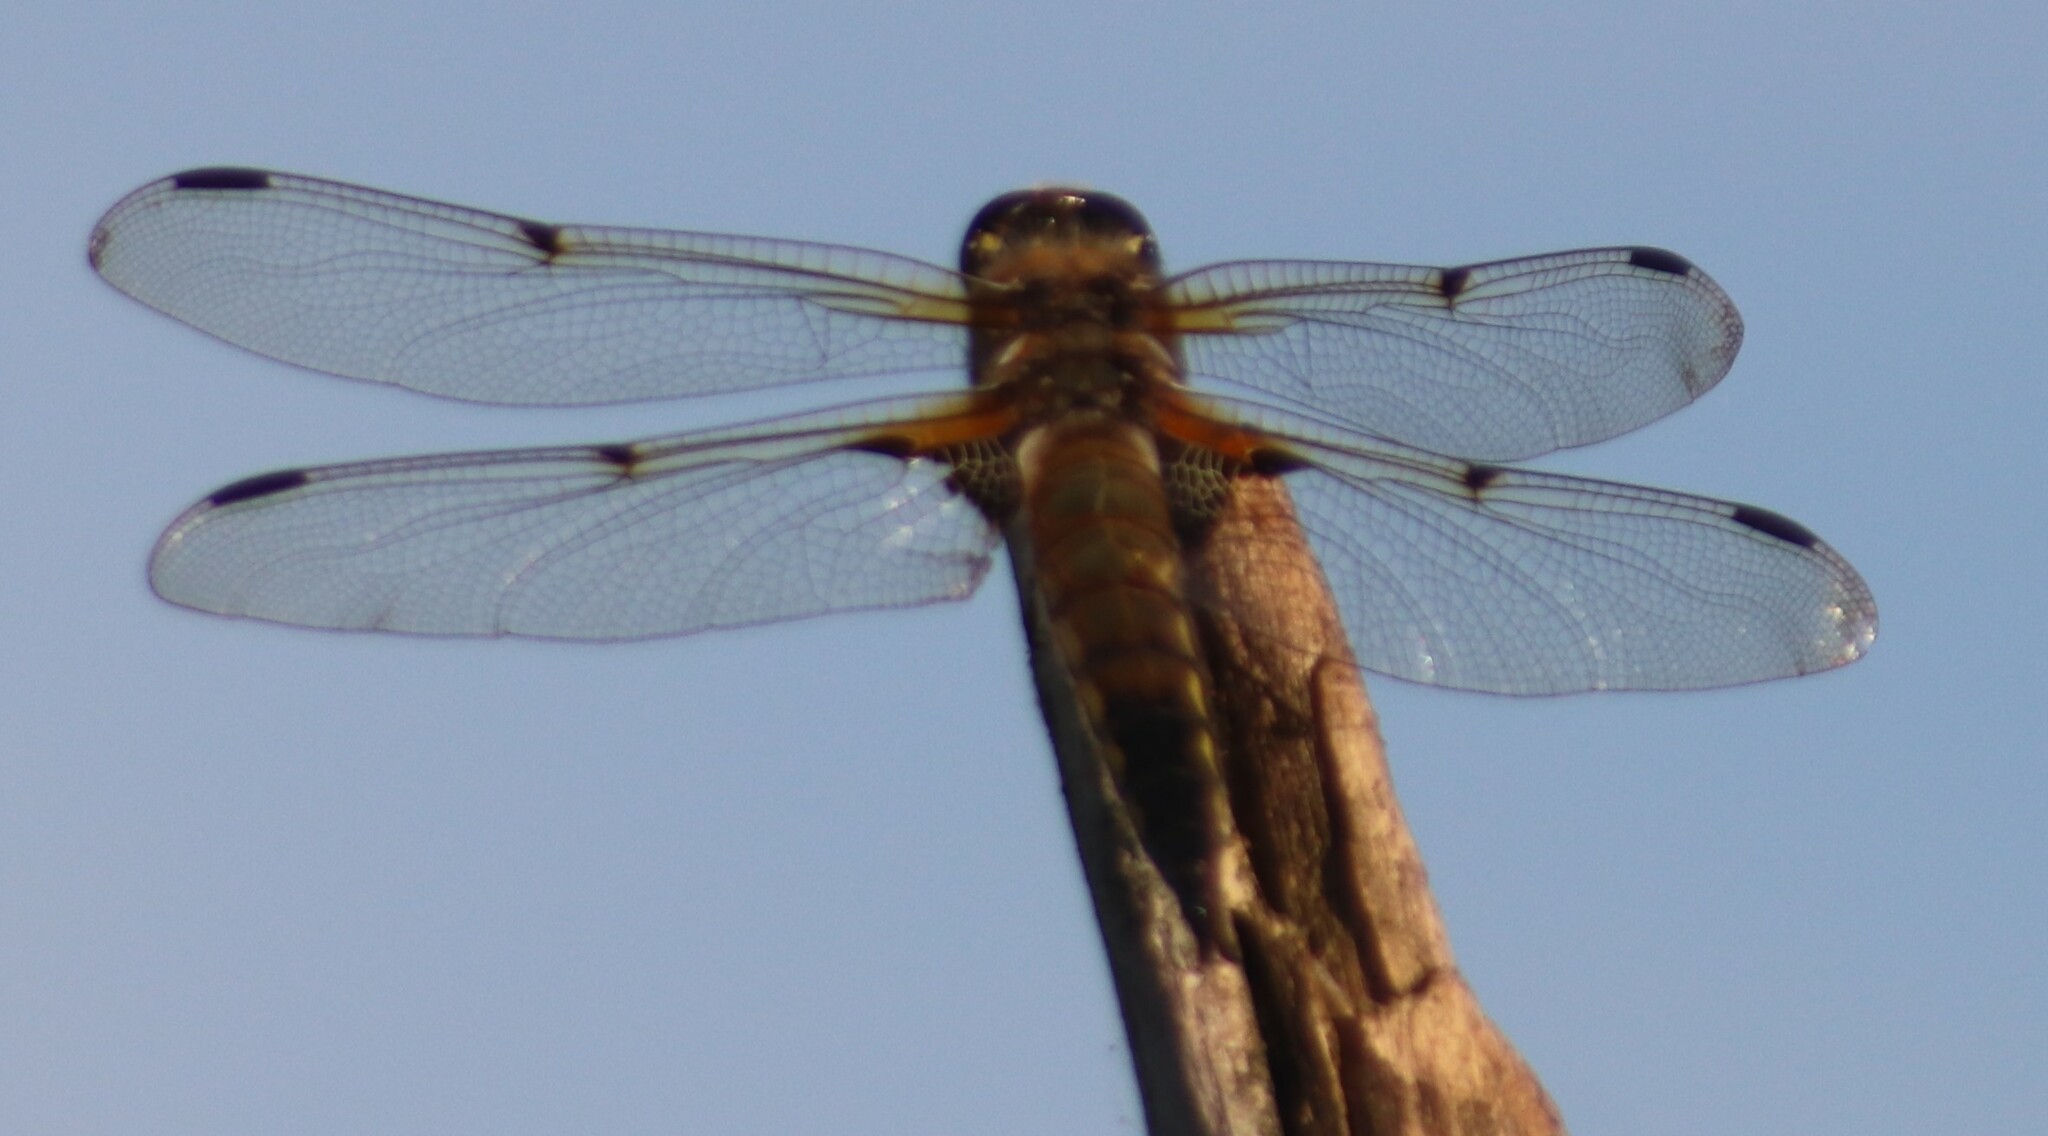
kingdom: Animalia
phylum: Arthropoda
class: Insecta
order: Odonata
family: Libellulidae
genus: Libellula
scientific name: Libellula quadrimaculata
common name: Four-spotted chaser
